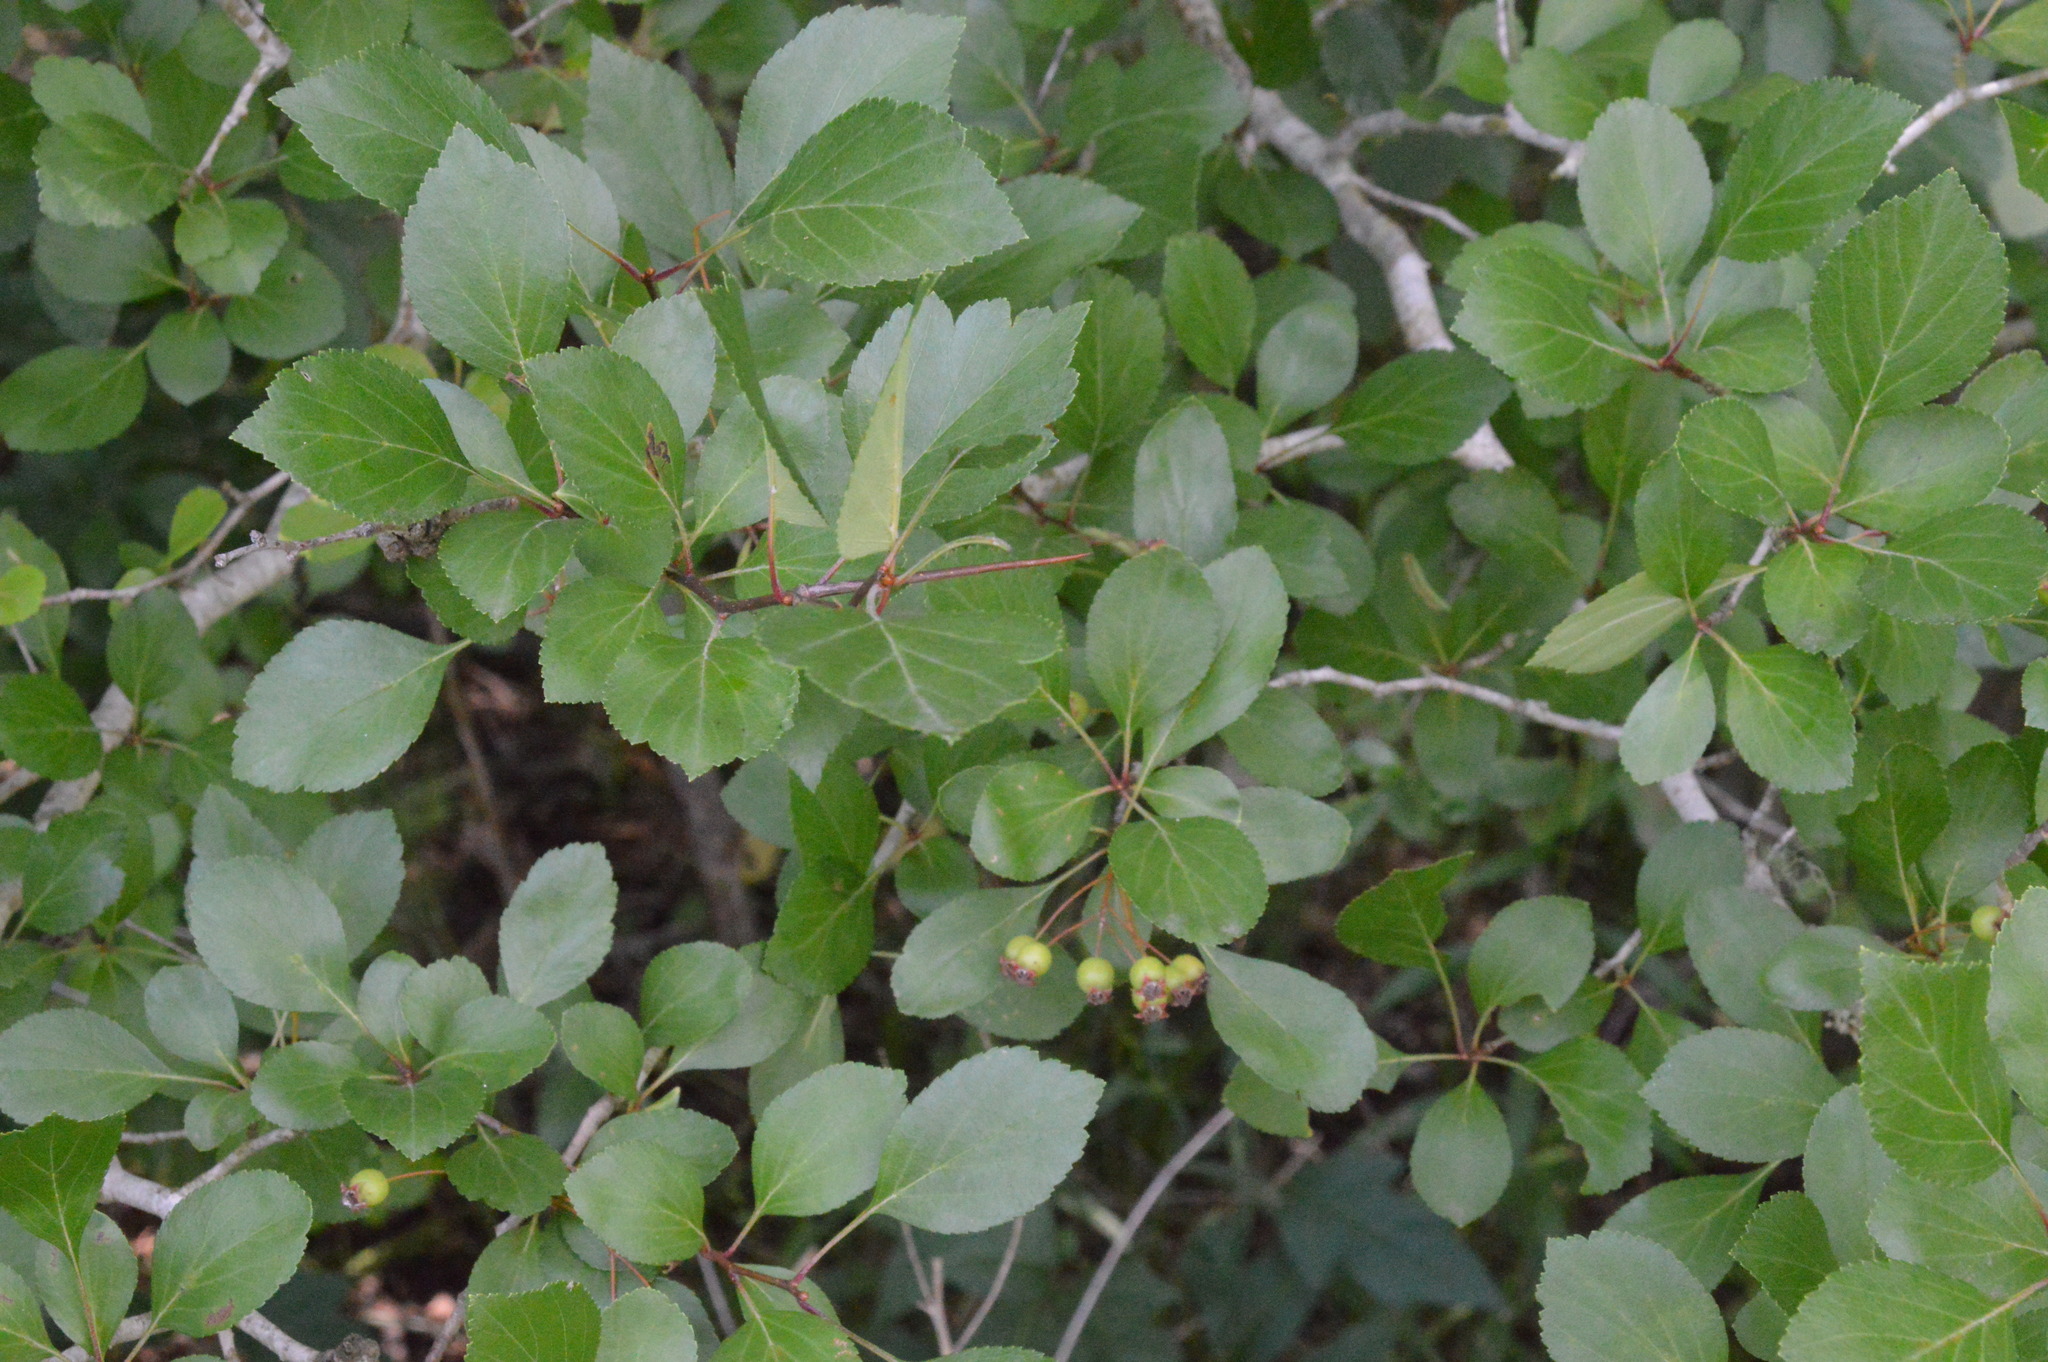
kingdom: Plantae
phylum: Tracheophyta
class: Magnoliopsida
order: Rosales
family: Rosaceae
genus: Crataegus
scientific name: Crataegus viridis
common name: Southernthorn
